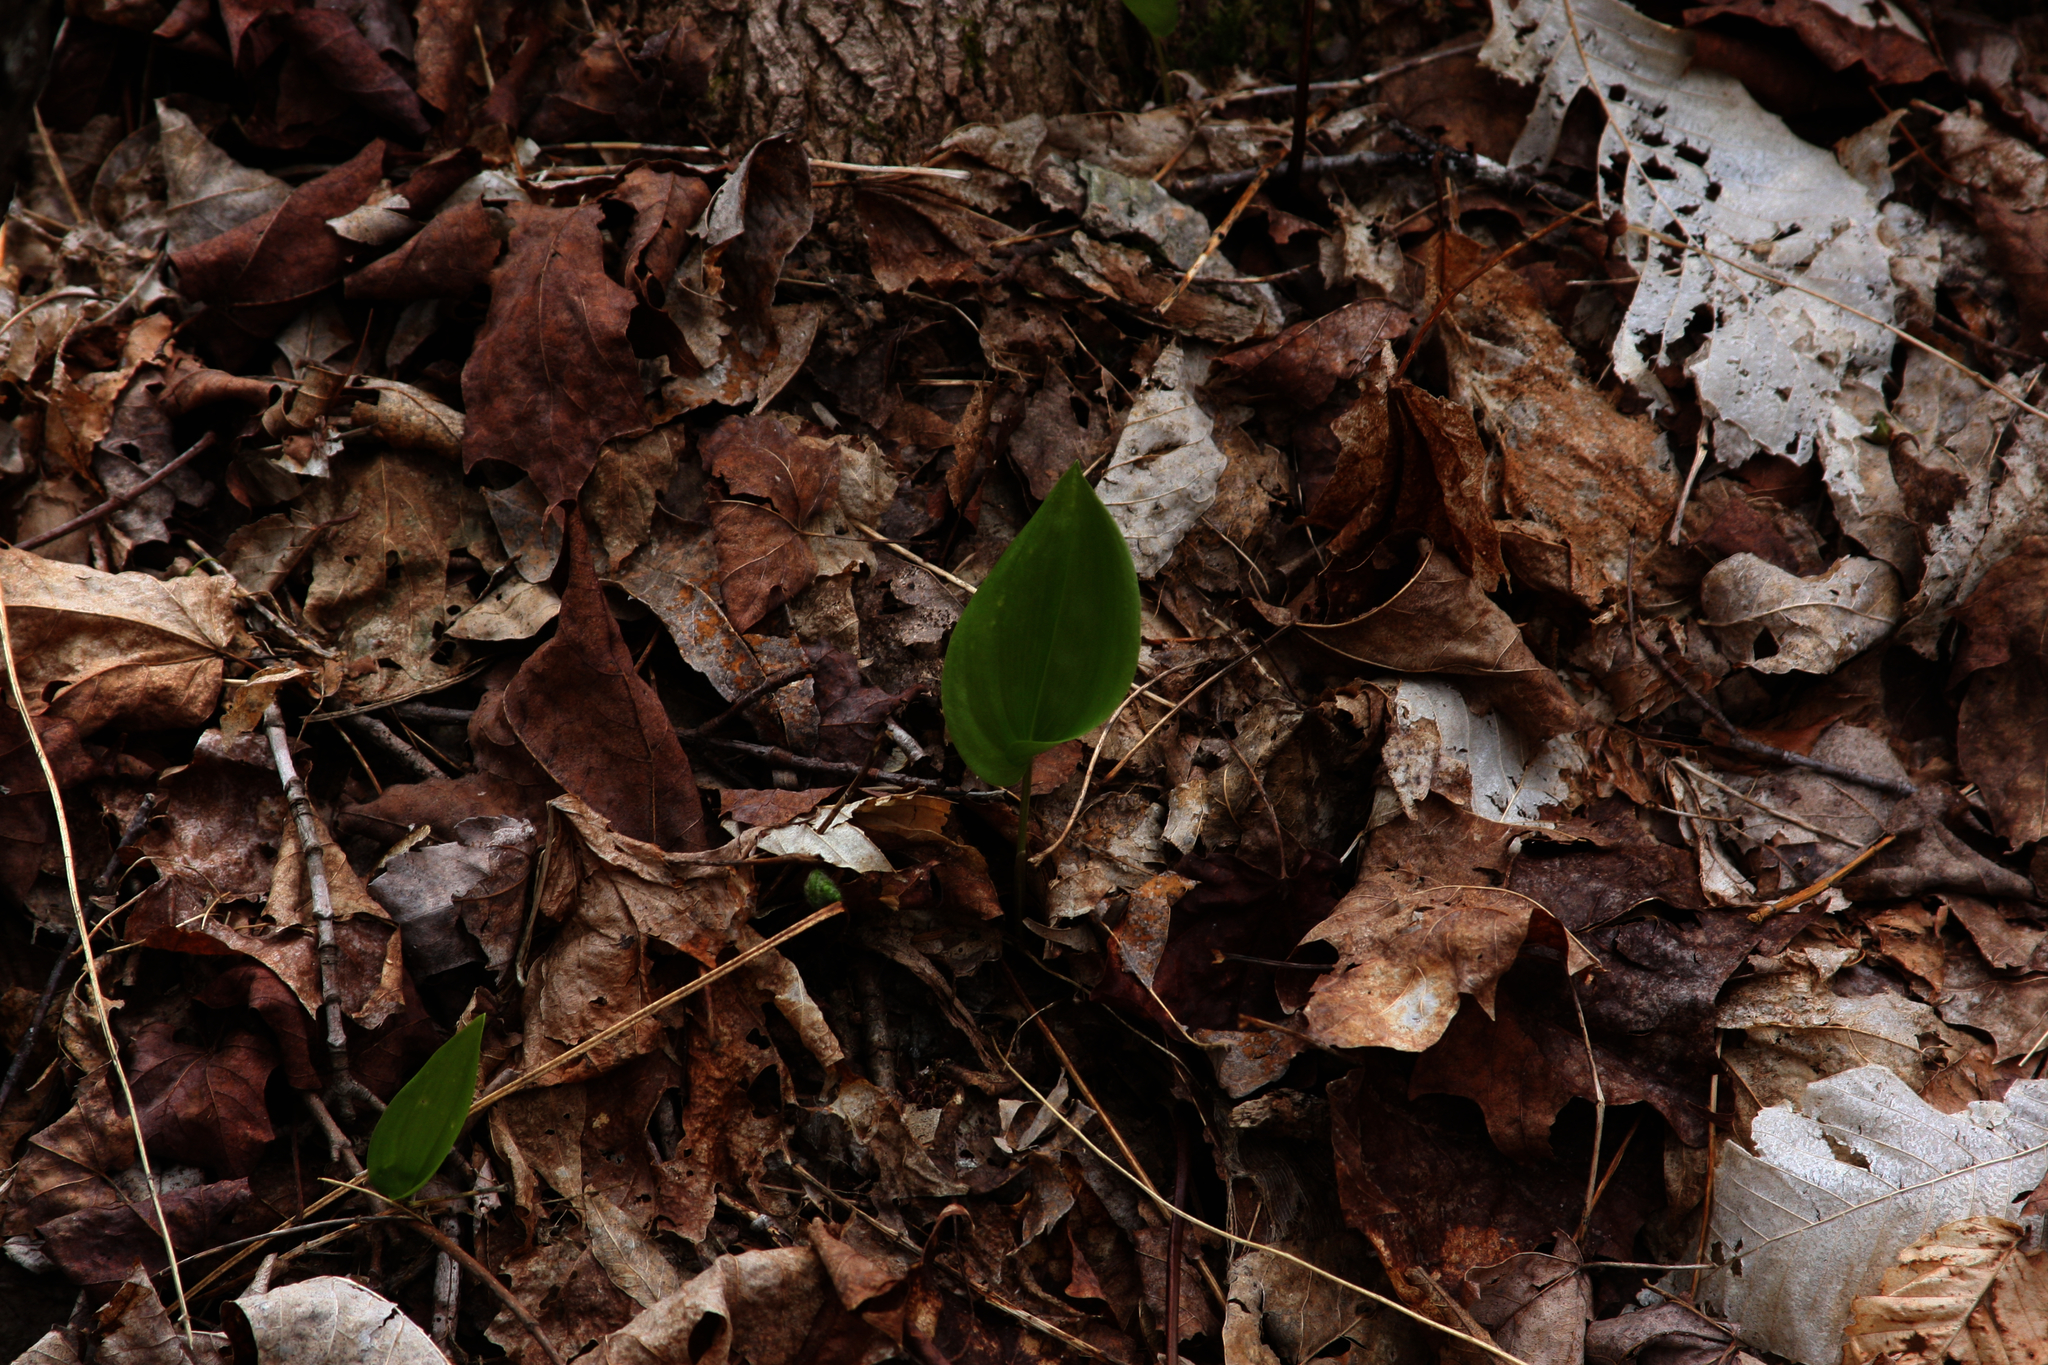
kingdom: Plantae
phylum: Tracheophyta
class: Liliopsida
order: Asparagales
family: Asparagaceae
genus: Maianthemum
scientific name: Maianthemum canadense
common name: False lily-of-the-valley
